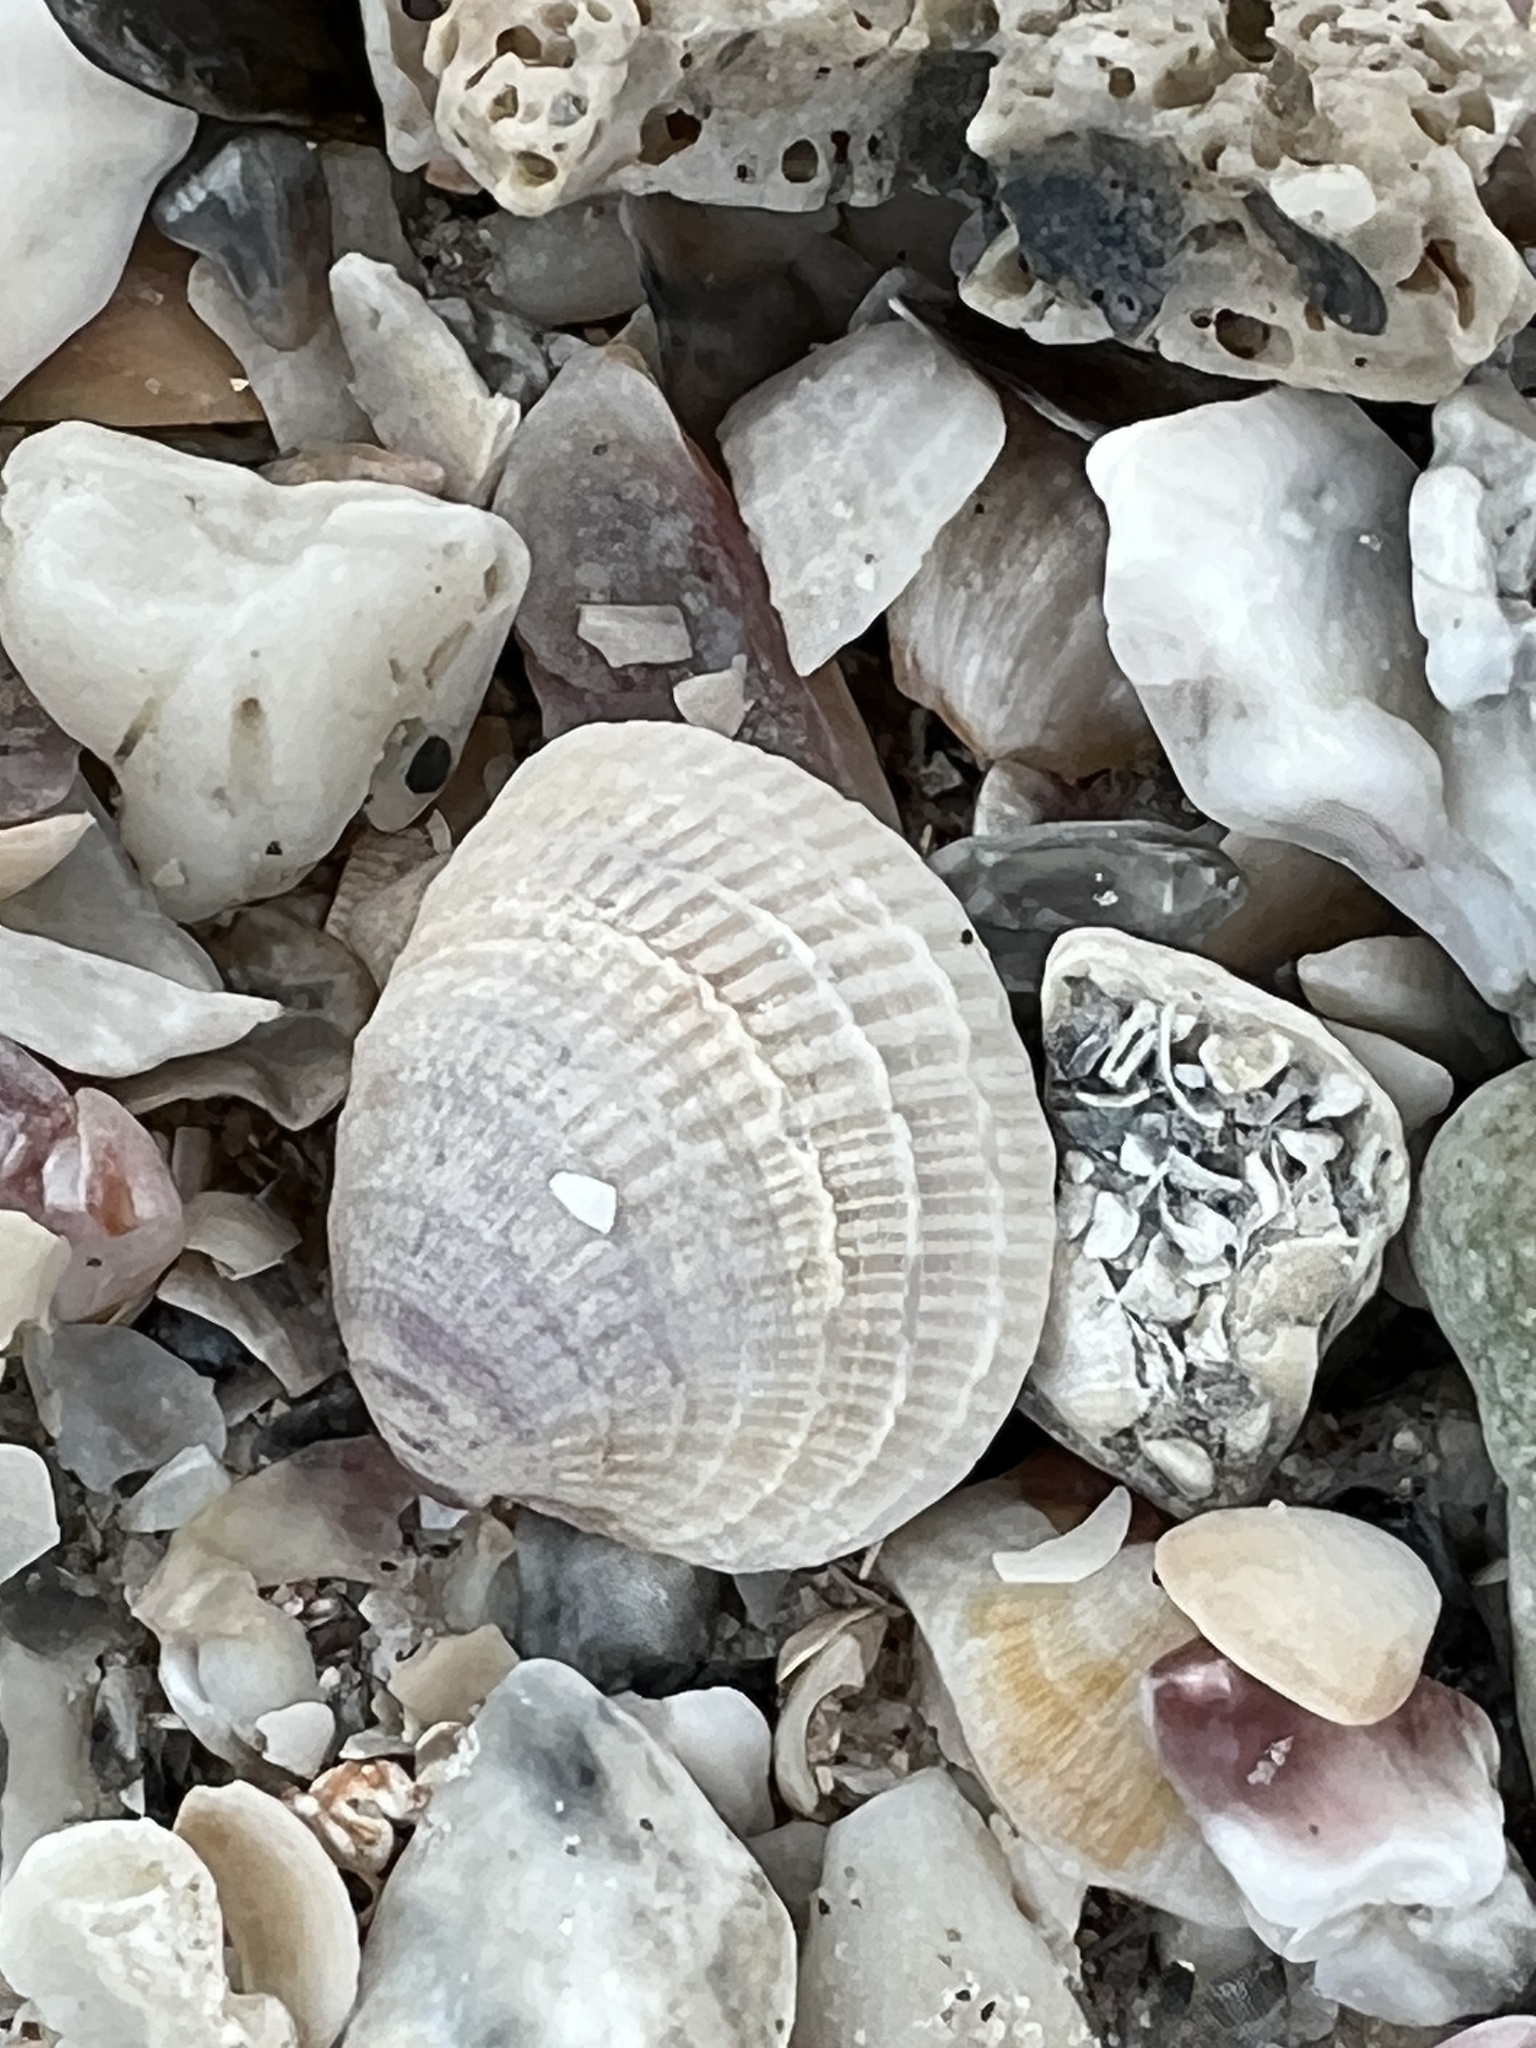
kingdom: Animalia
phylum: Mollusca
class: Bivalvia
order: Venerida
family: Veneridae
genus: Chione
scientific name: Chione elevata
